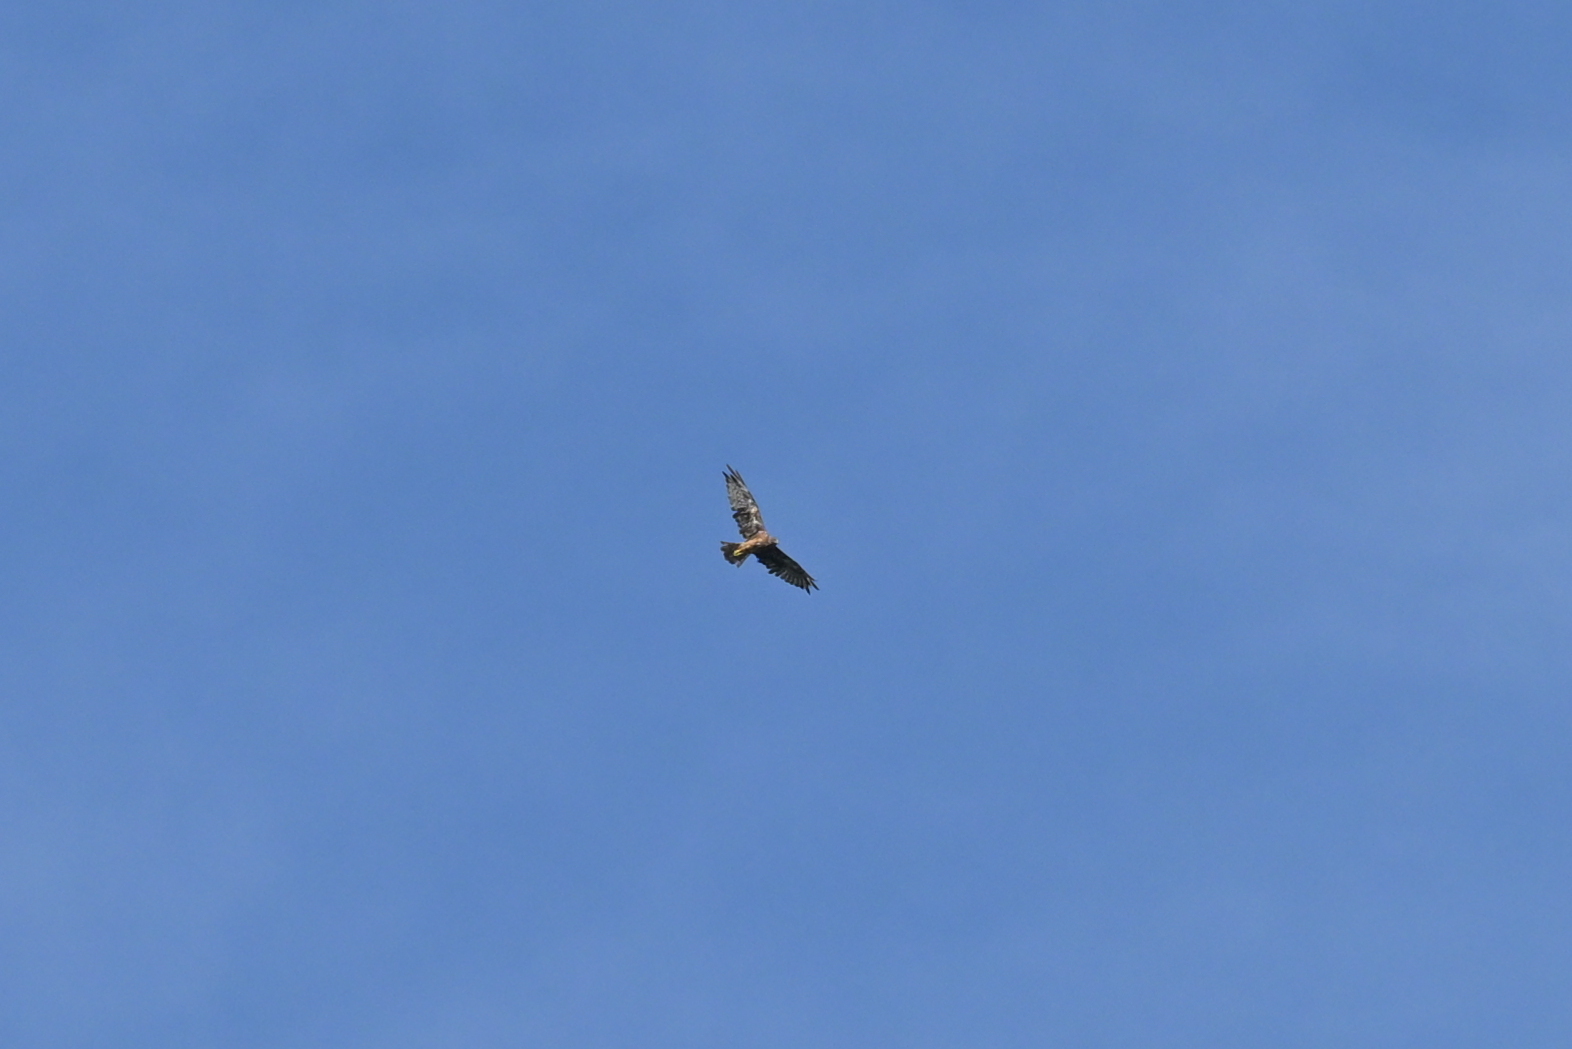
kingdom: Animalia
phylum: Chordata
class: Aves
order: Accipitriformes
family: Accipitridae
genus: Circus
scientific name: Circus approximans
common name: Swamp harrier
